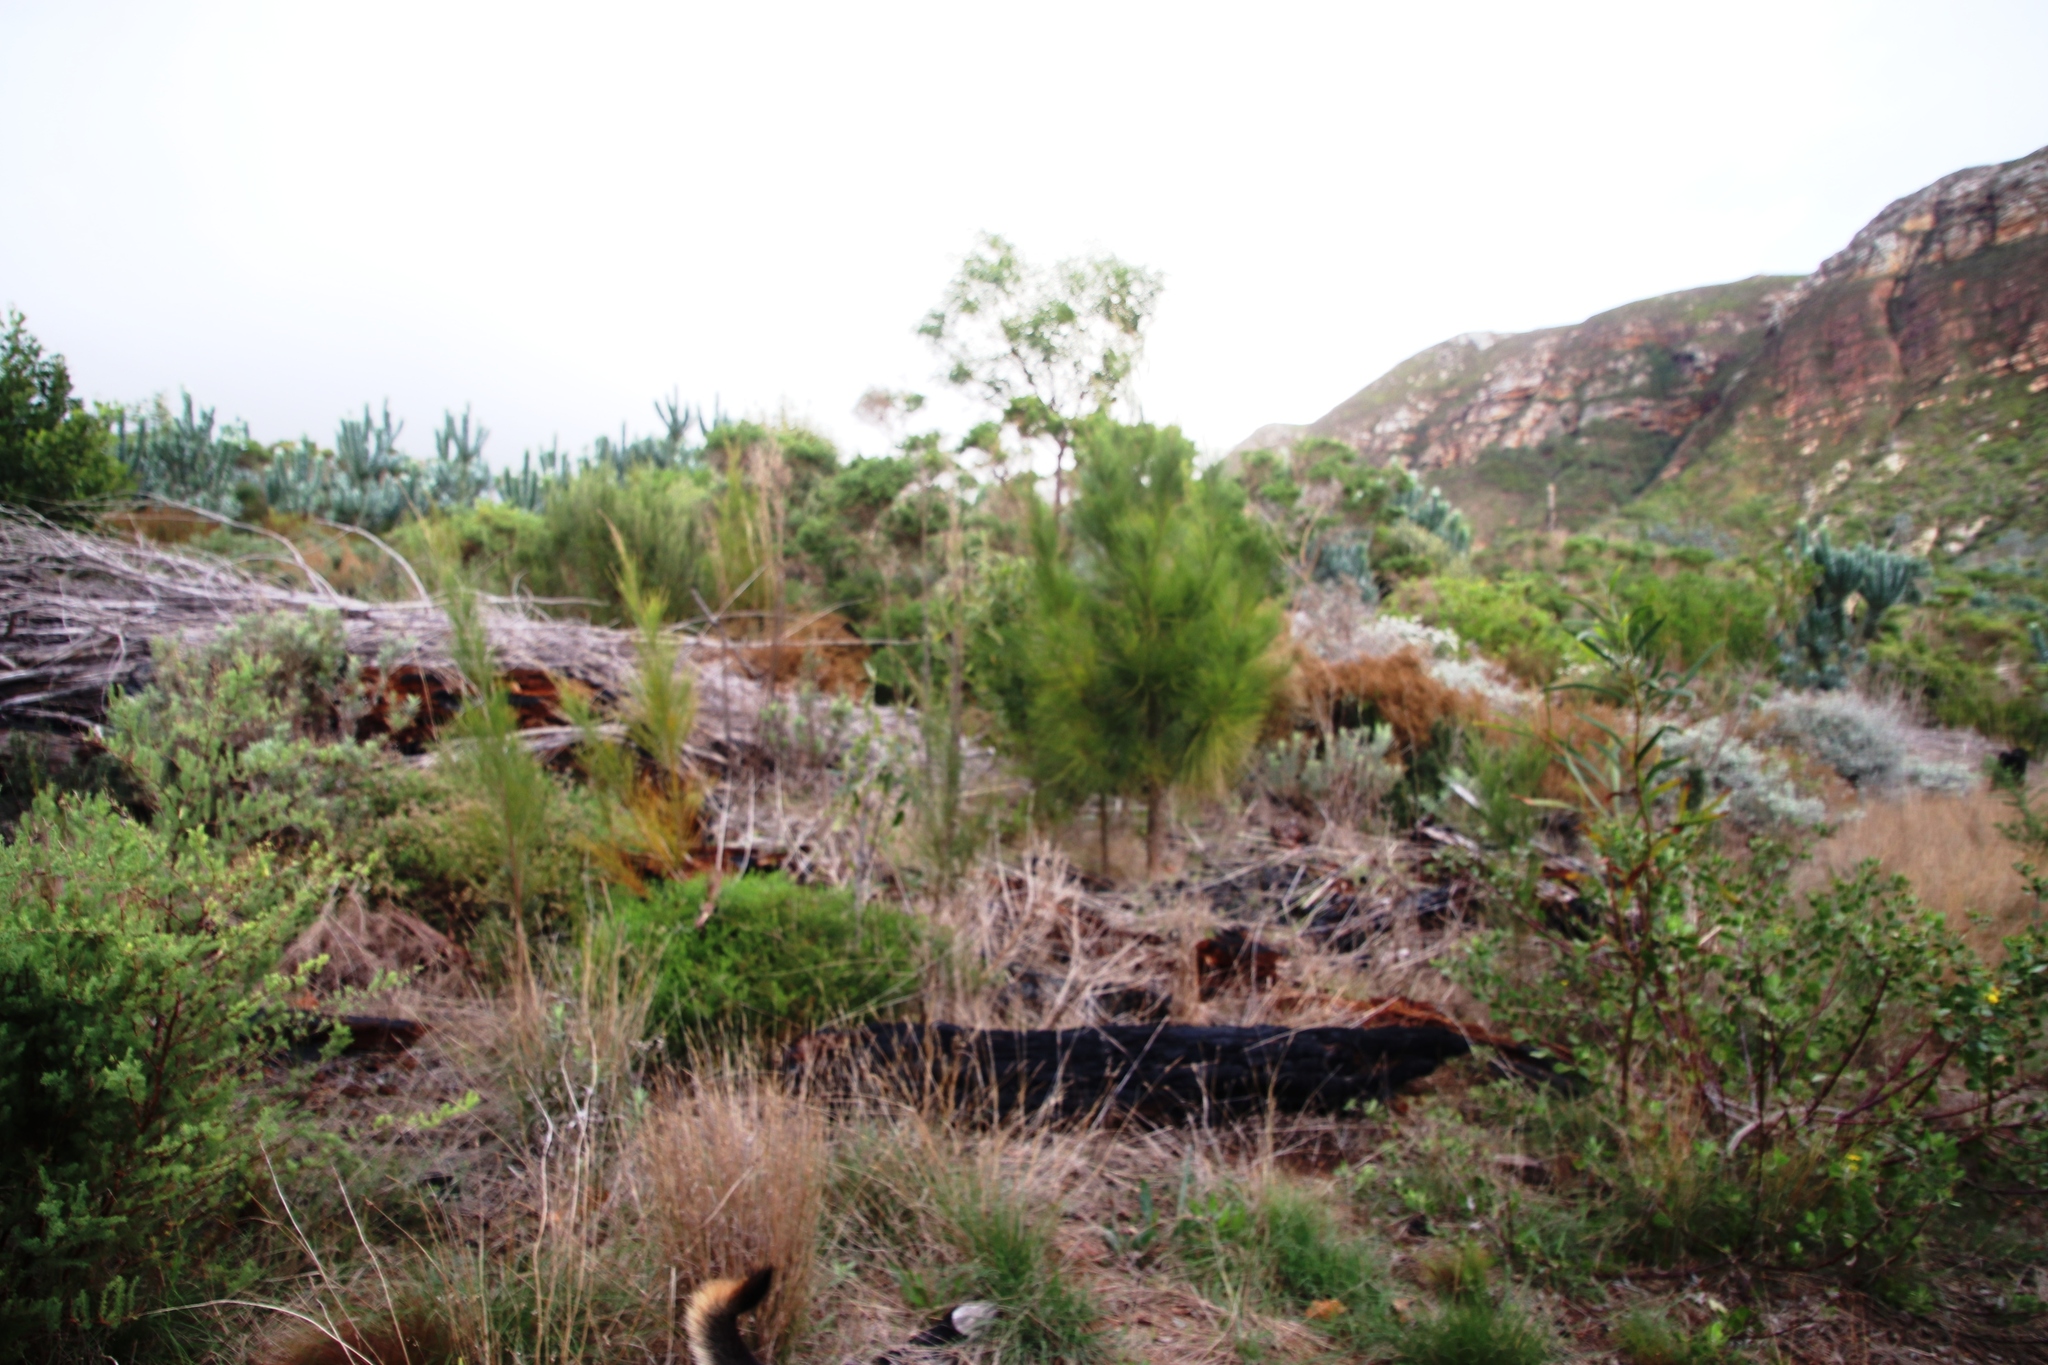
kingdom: Plantae
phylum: Tracheophyta
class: Magnoliopsida
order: Fagales
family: Casuarinaceae
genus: Casuarina
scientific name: Casuarina cunninghamiana
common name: River sheoak
